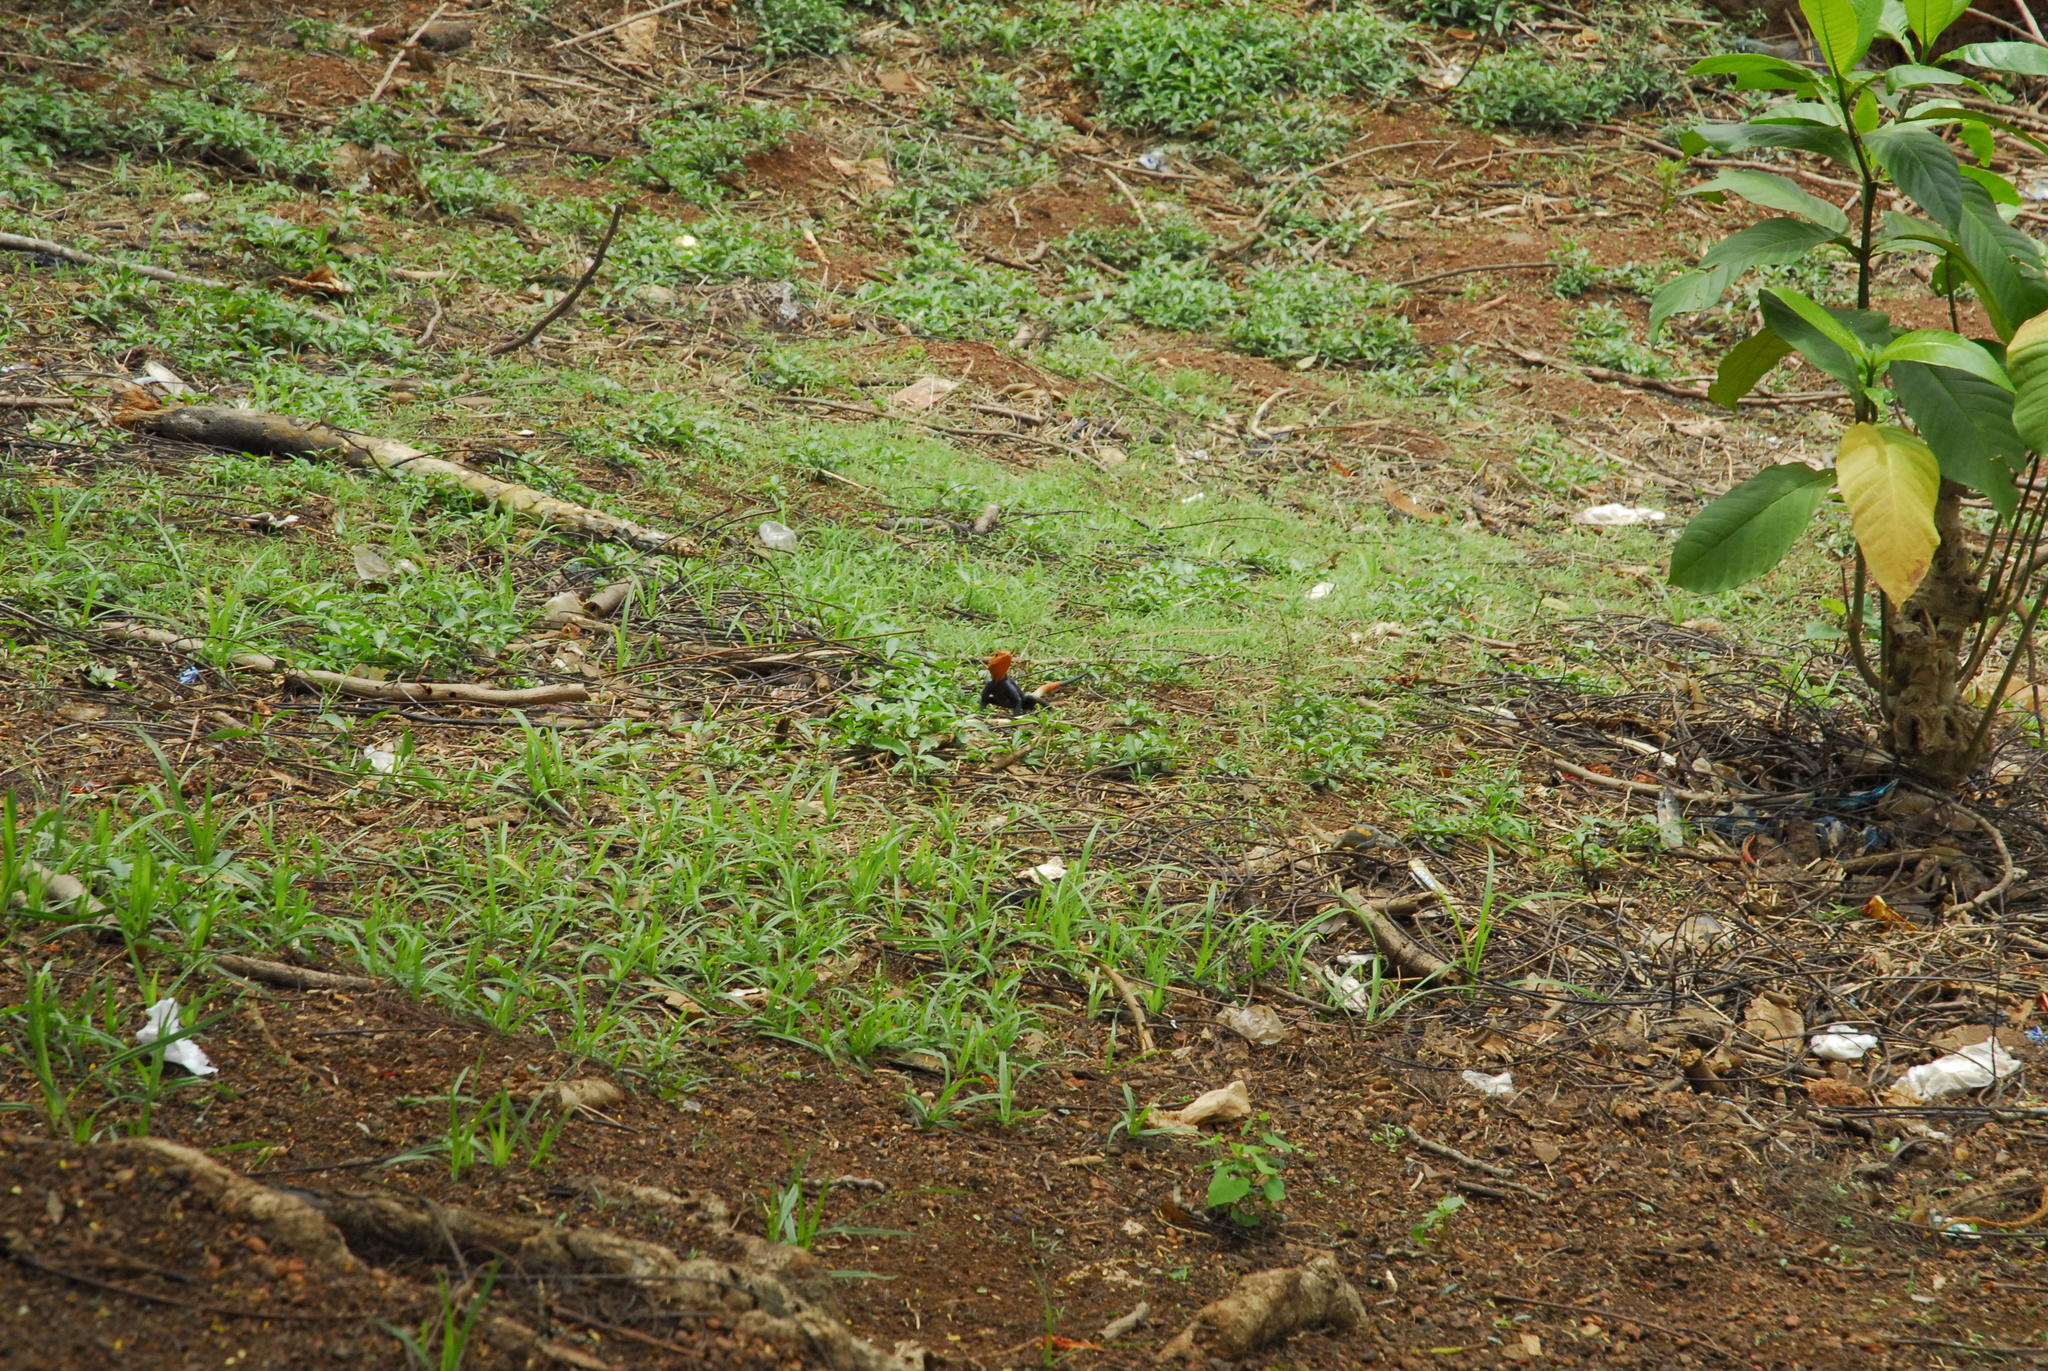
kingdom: Animalia
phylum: Chordata
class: Squamata
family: Agamidae
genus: Agama
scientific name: Agama agama
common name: Common agama
